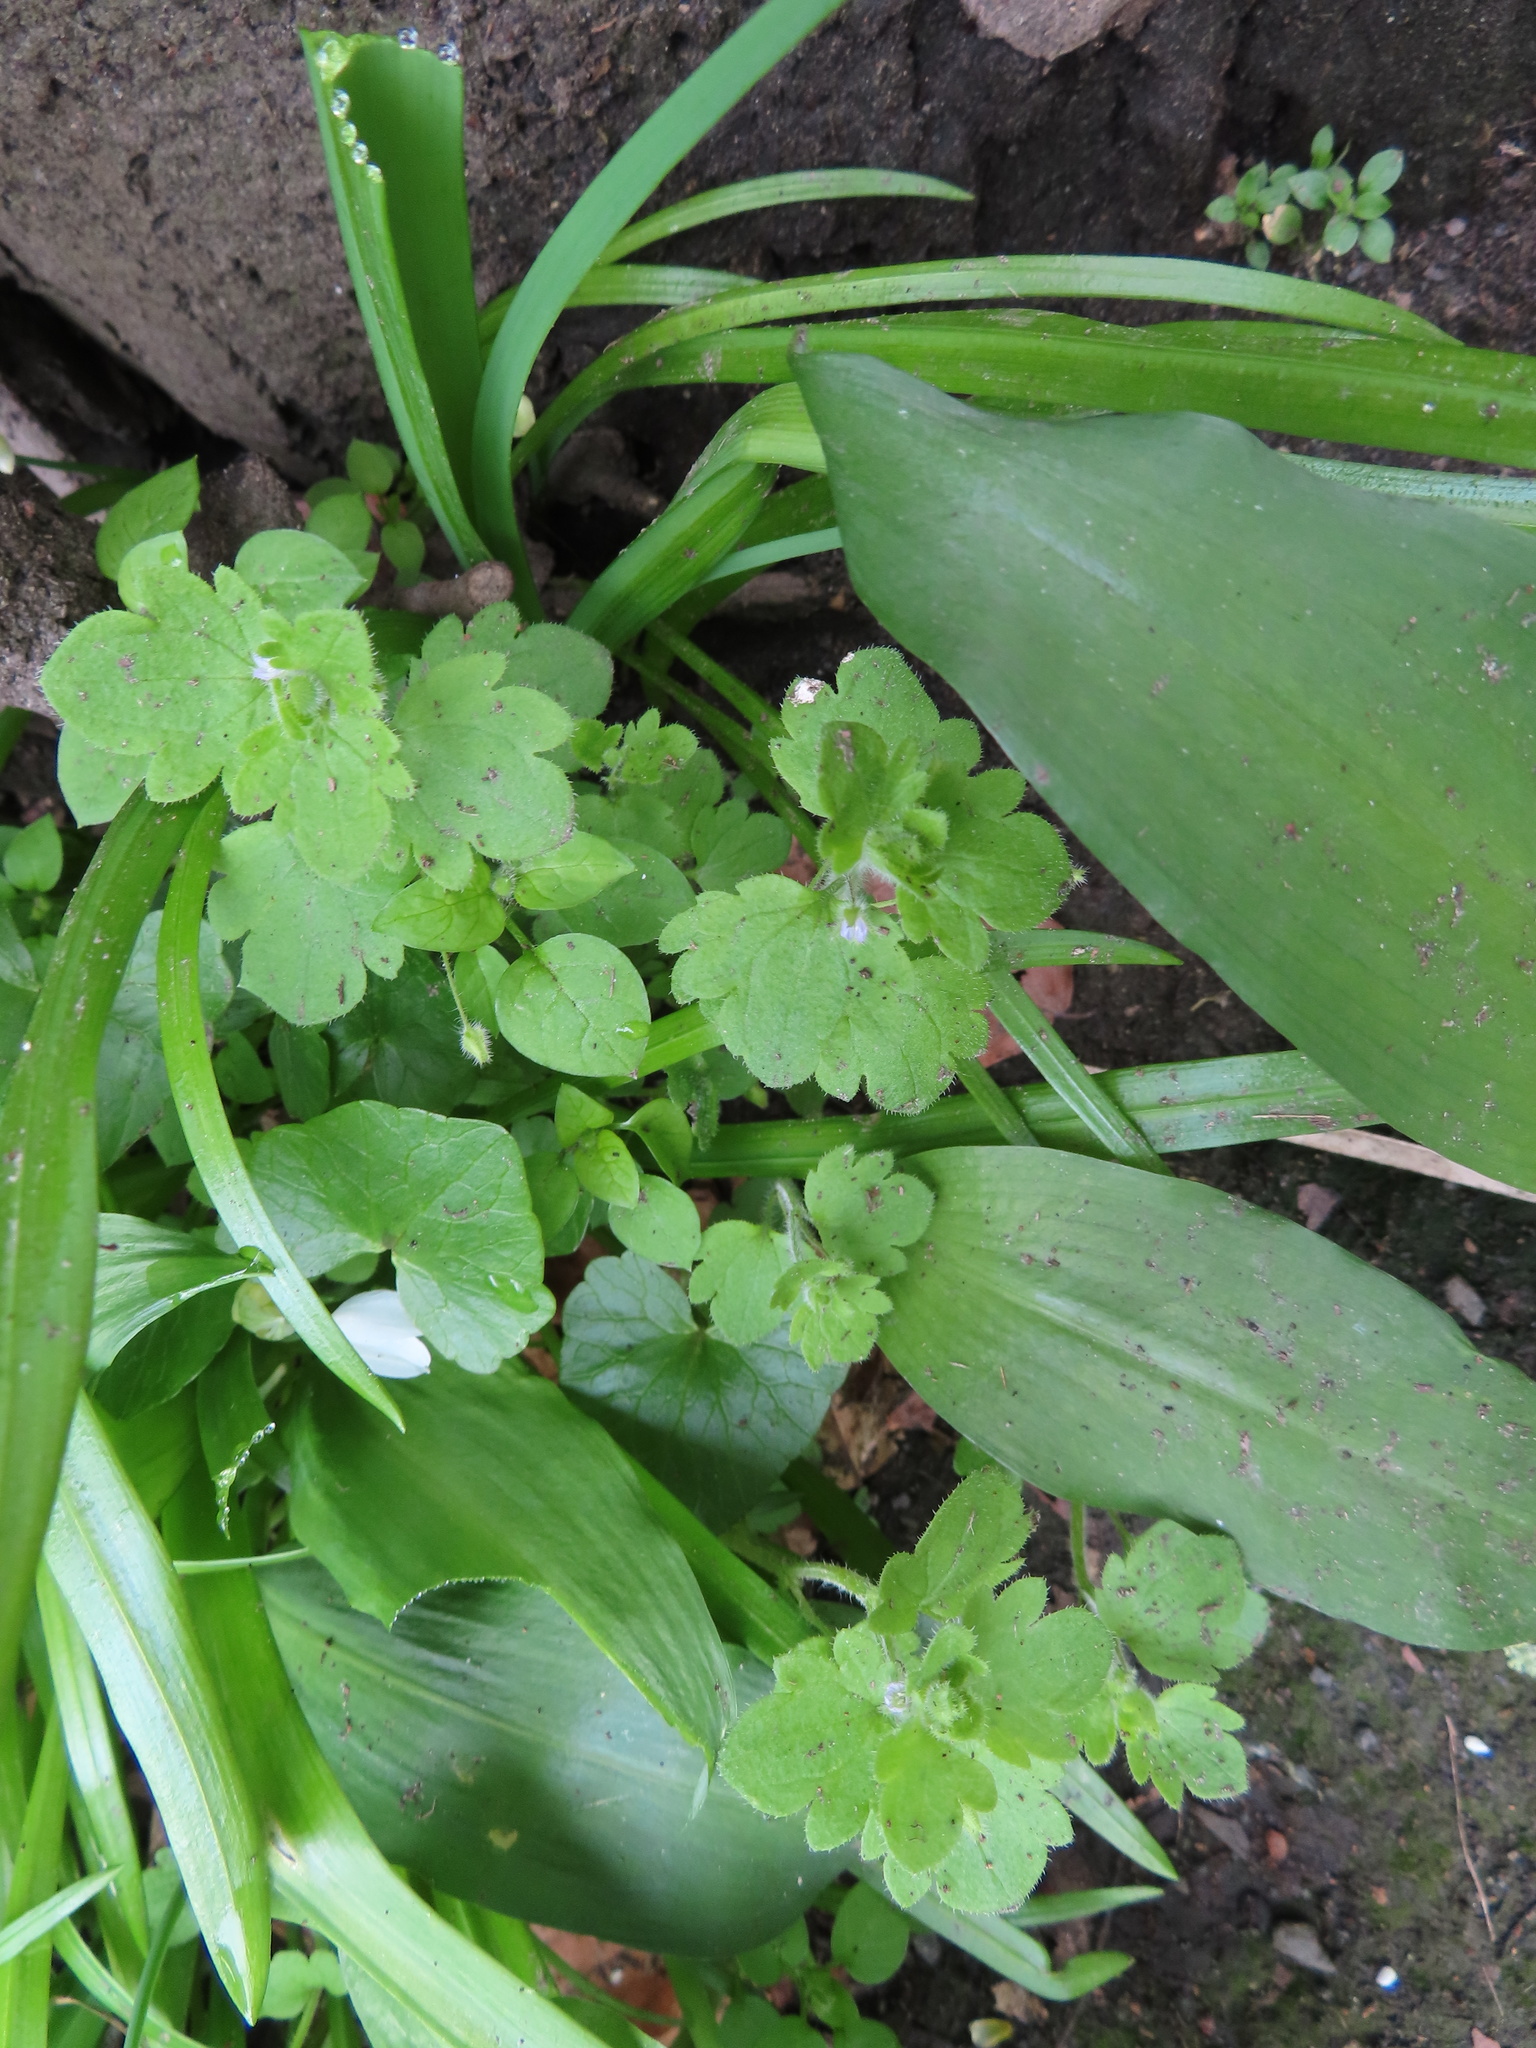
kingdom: Plantae
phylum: Tracheophyta
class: Magnoliopsida
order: Lamiales
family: Plantaginaceae
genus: Veronica
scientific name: Veronica sublobata
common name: False ivy-leaved speedwell
